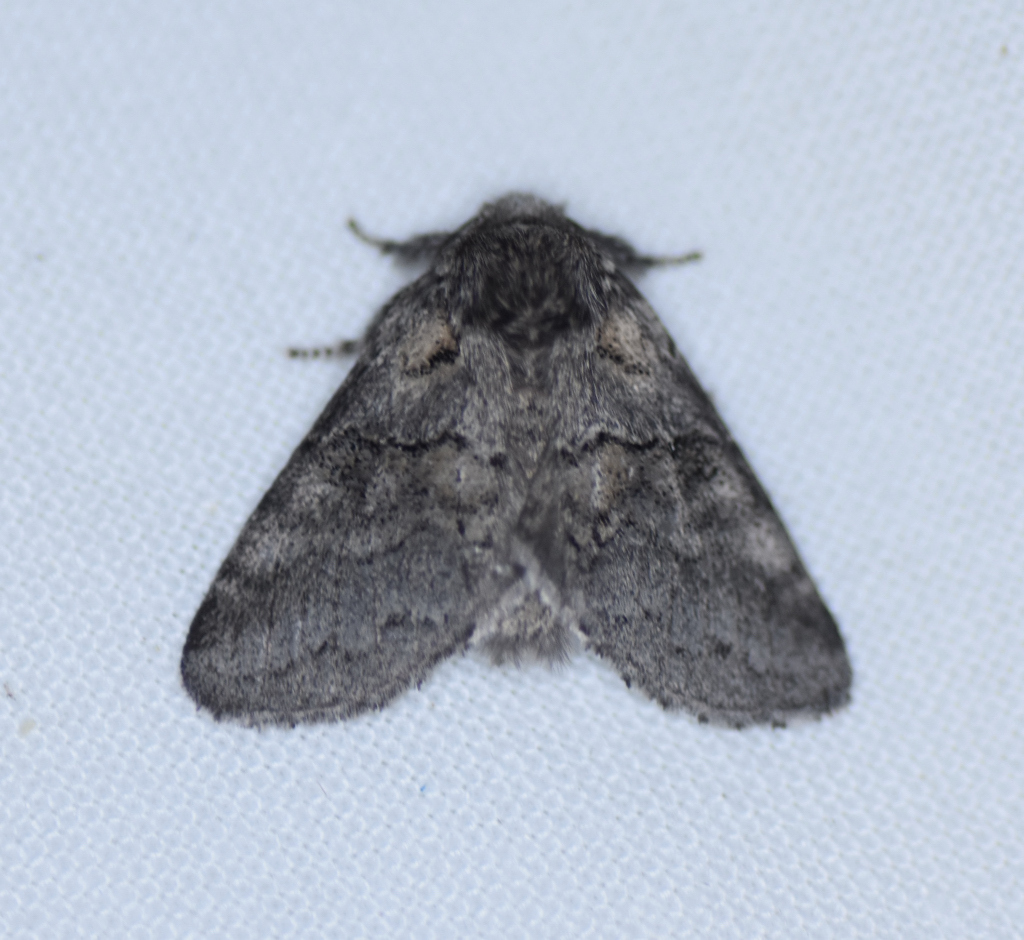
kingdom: Animalia
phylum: Arthropoda
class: Insecta
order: Lepidoptera
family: Notodontidae
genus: Gluphisia
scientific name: Gluphisia septentrionis
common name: Common gluphisia
